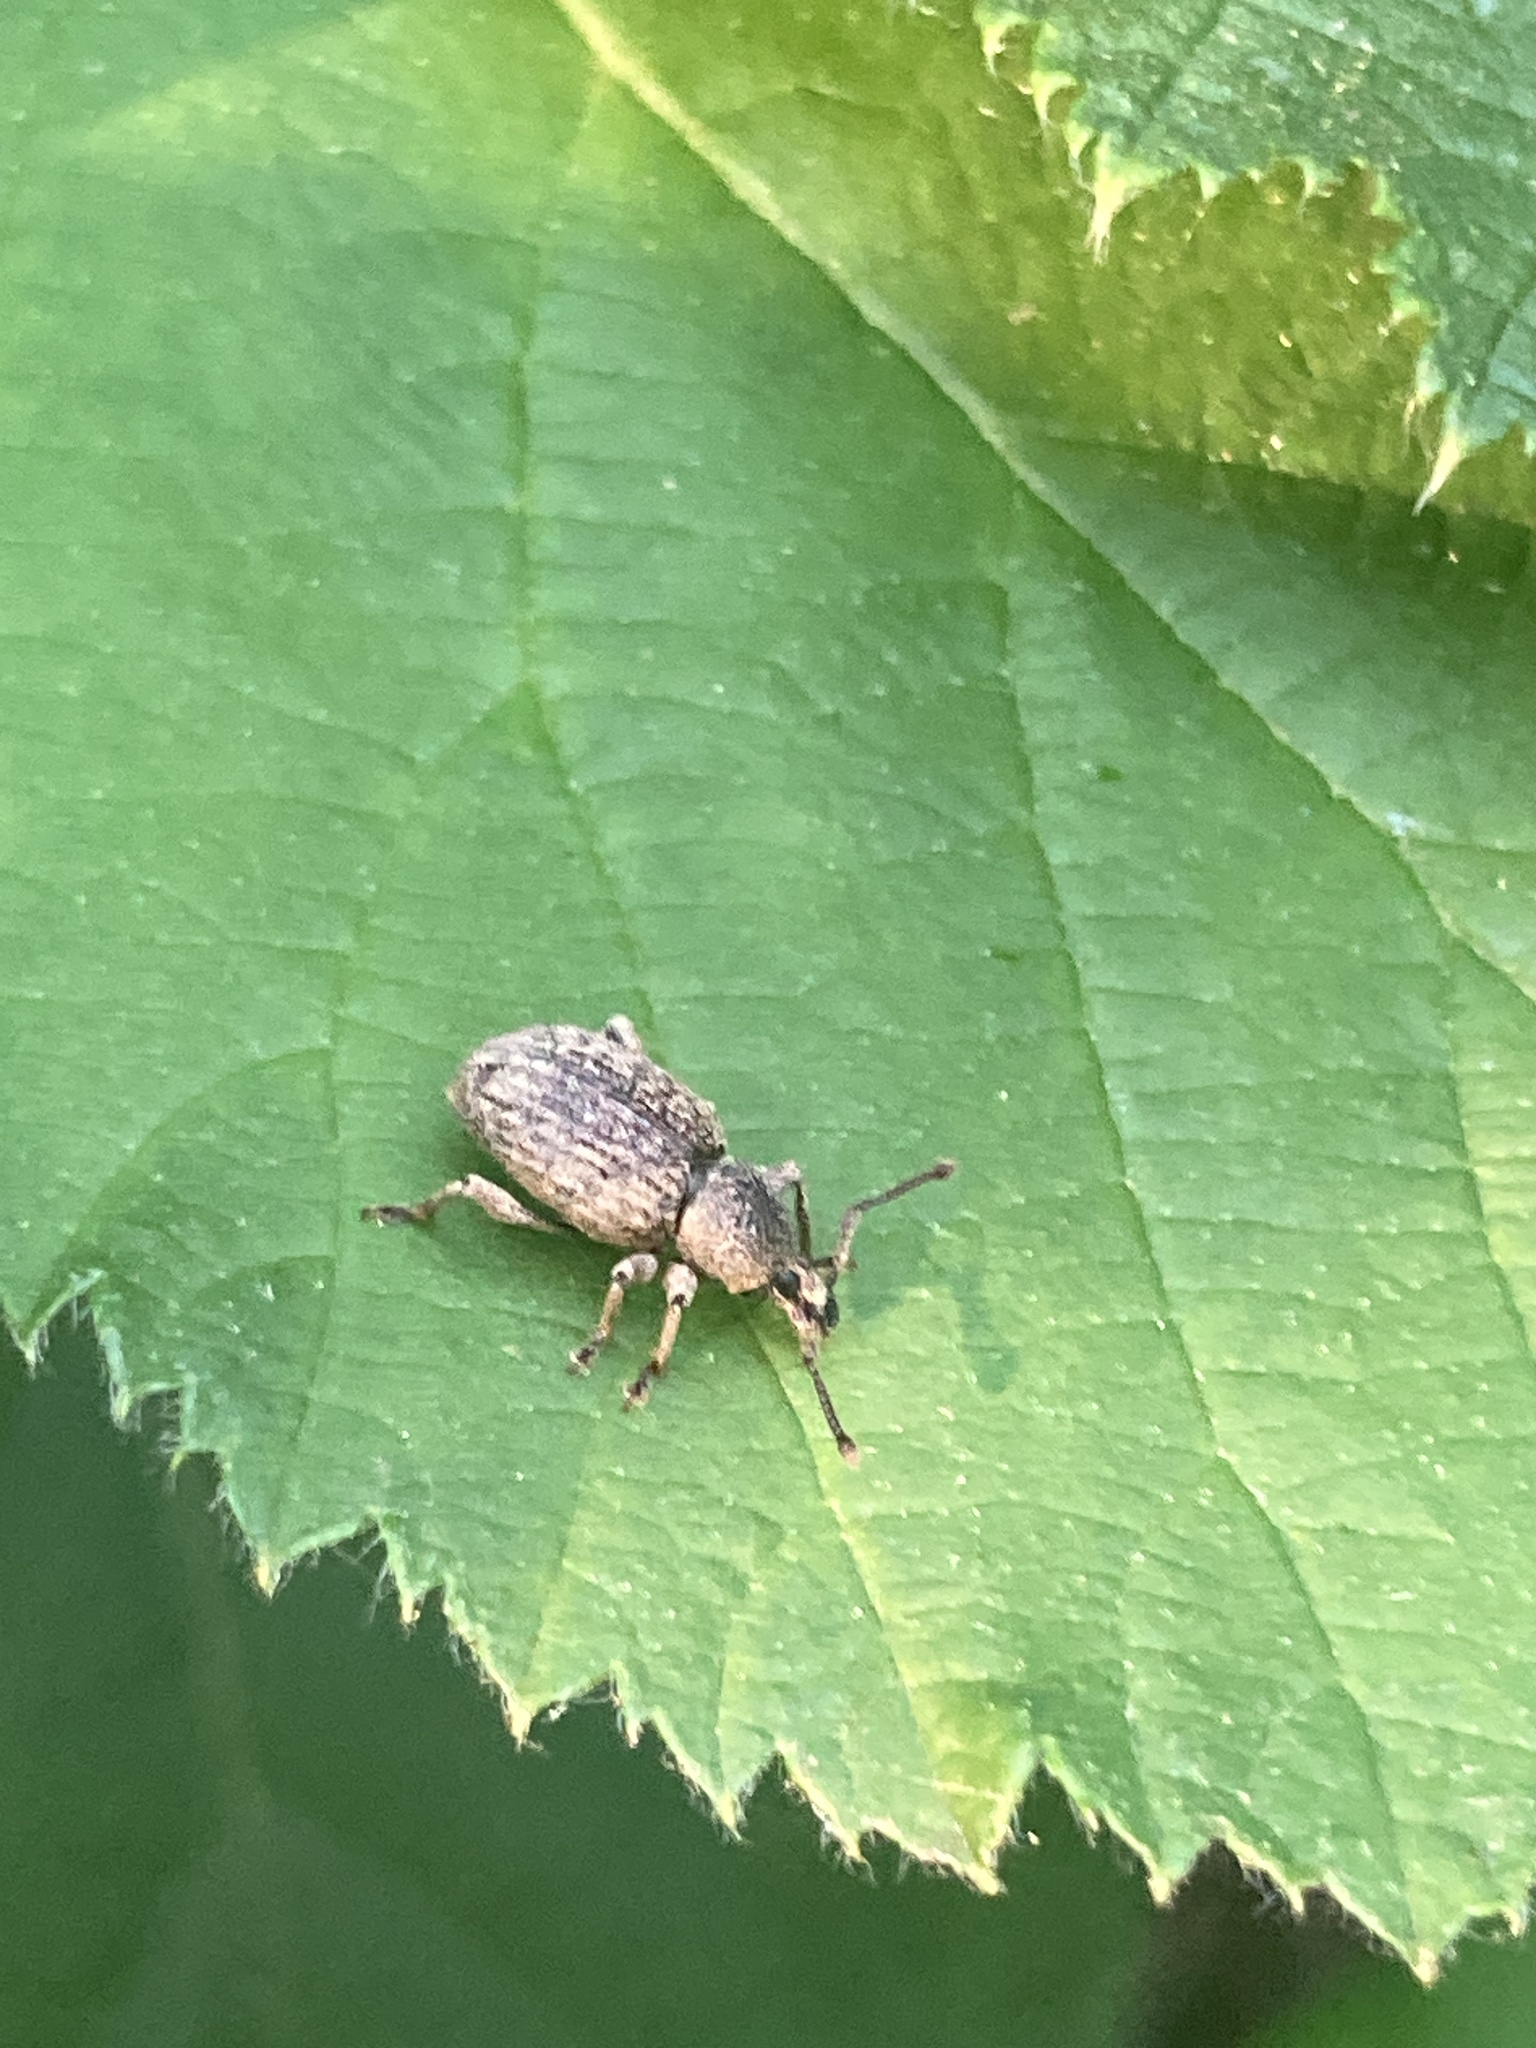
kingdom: Animalia
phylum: Arthropoda
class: Insecta
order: Coleoptera
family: Curculionidae
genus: Otiorhynchus
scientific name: Otiorhynchus singularis
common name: Clay-coloured weevil
